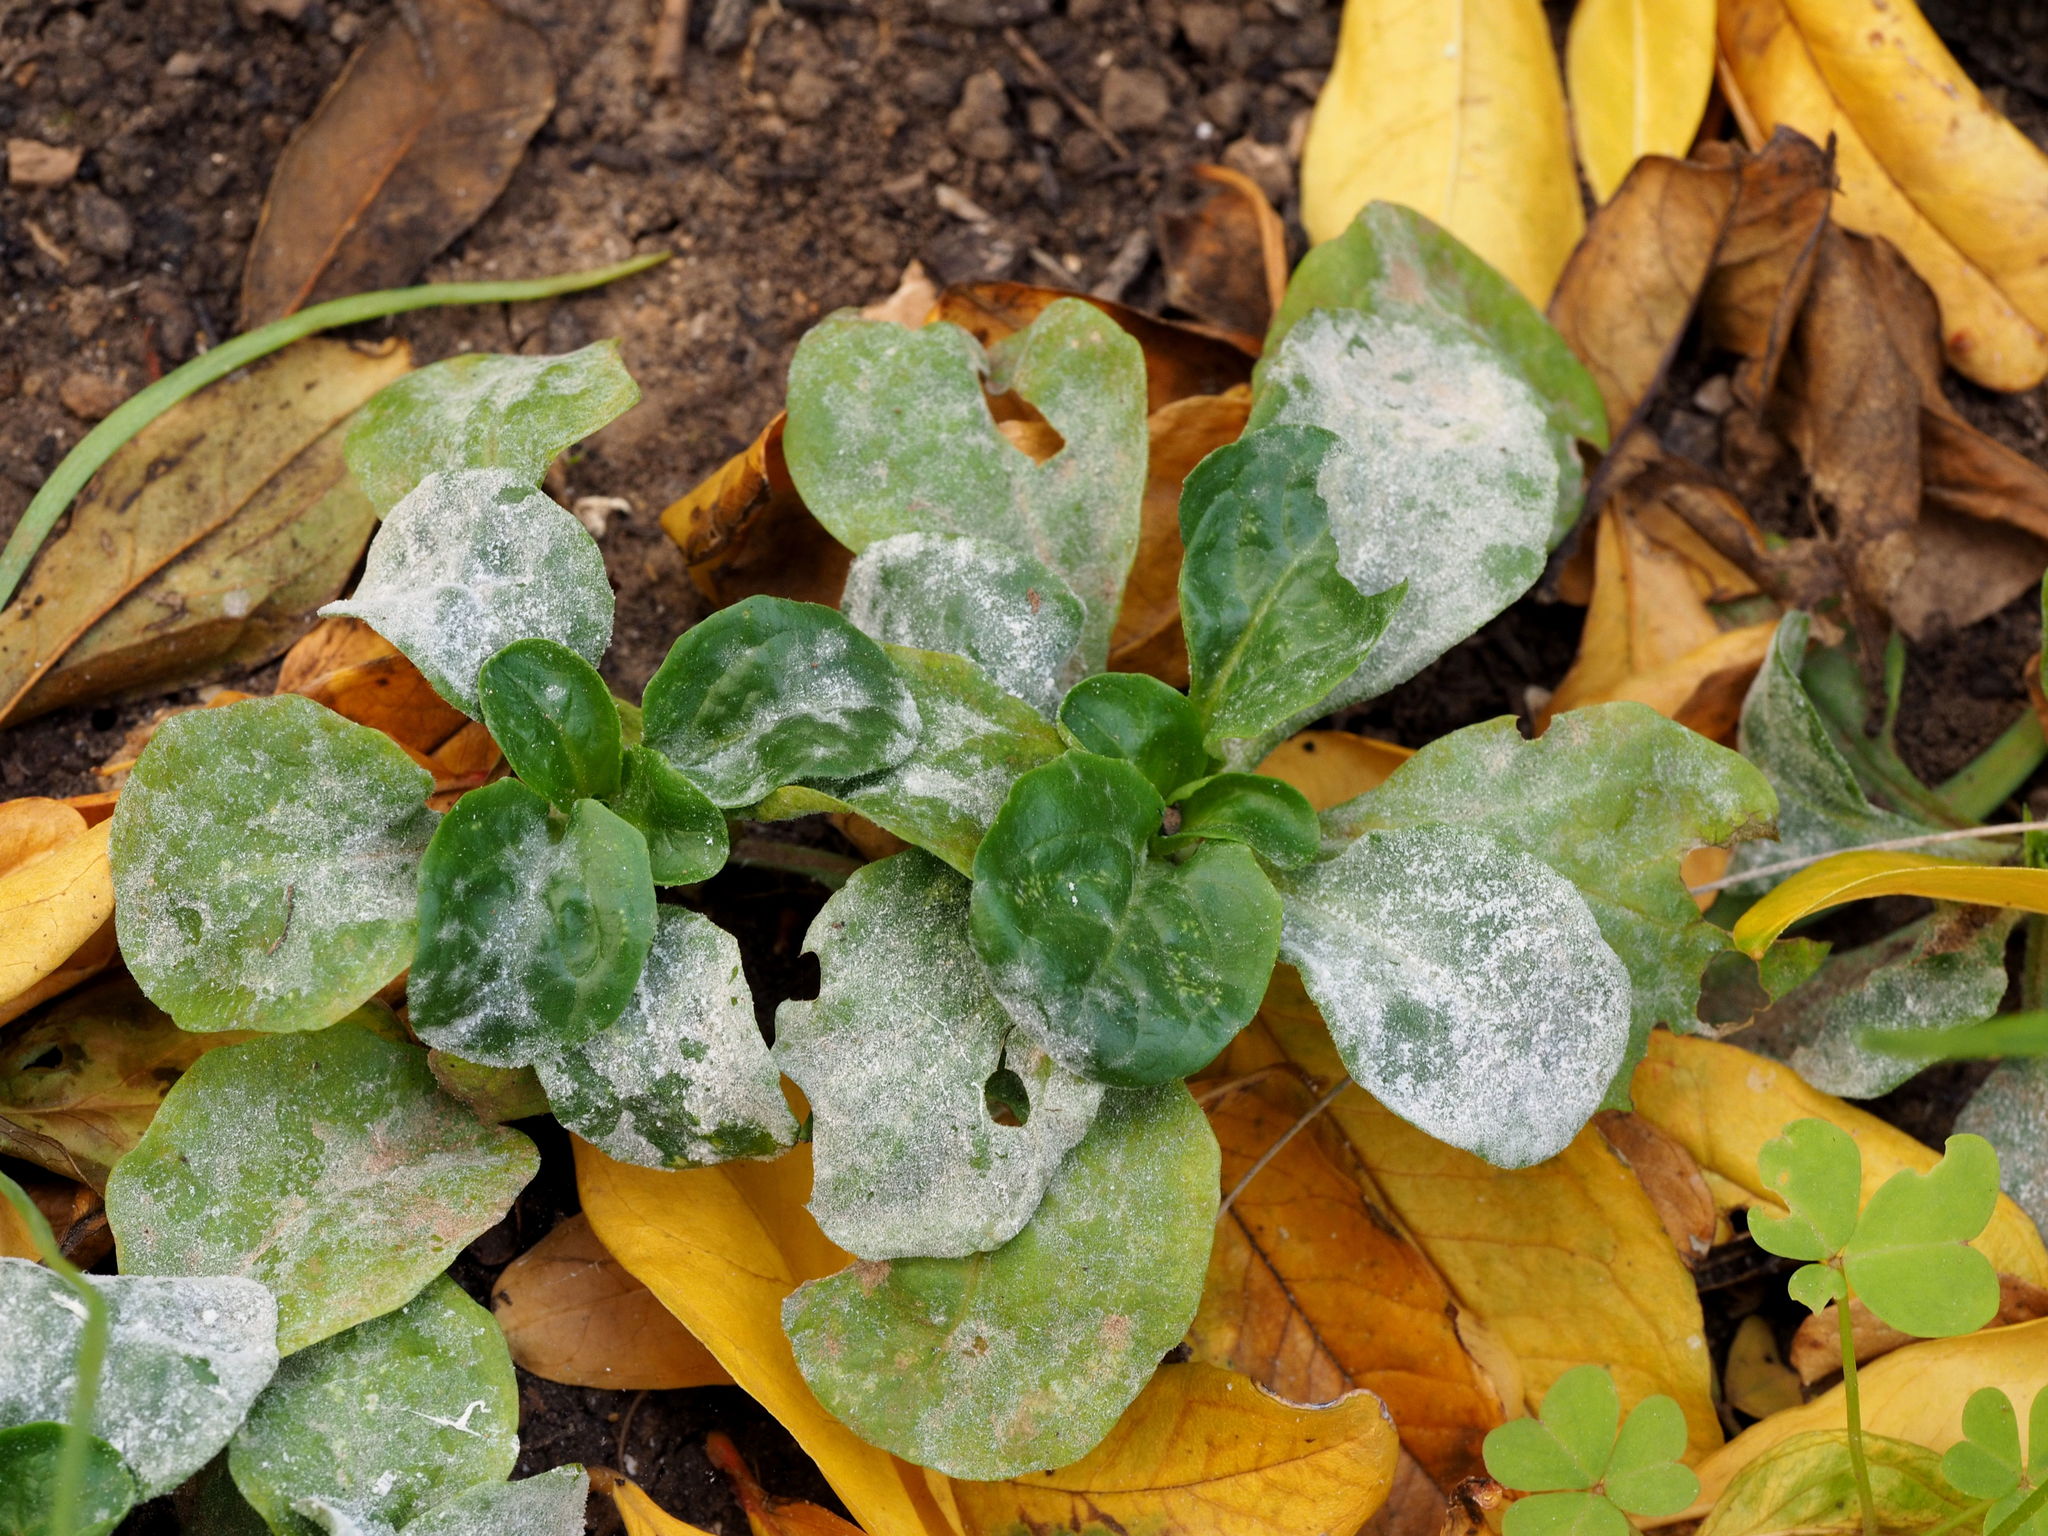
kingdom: Fungi
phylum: Ascomycota
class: Leotiomycetes
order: Helotiales
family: Erysiphaceae
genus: Golovinomyces
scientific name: Golovinomyces orontii
